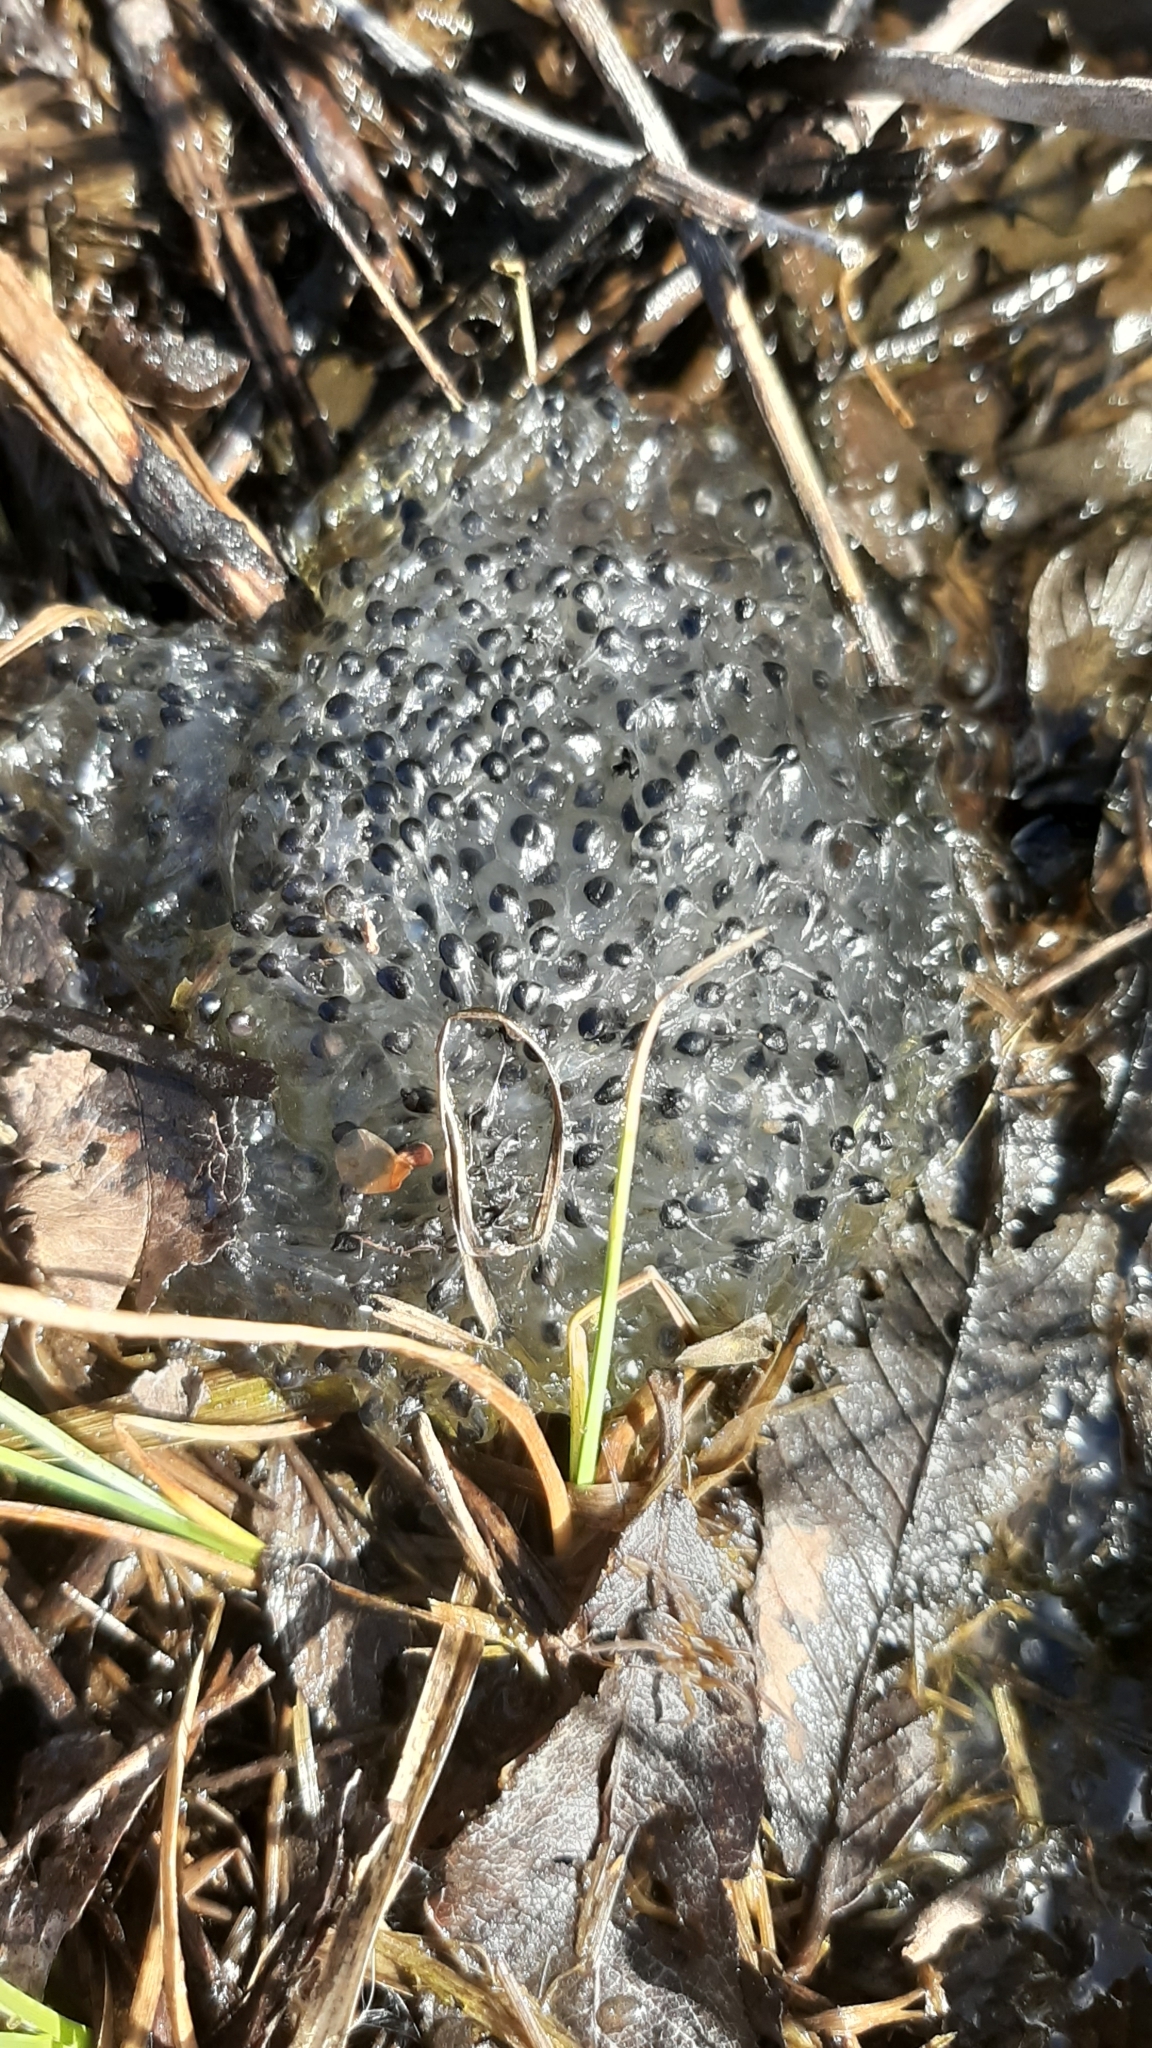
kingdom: Animalia
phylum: Chordata
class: Amphibia
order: Anura
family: Ranidae
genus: Rana
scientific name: Rana temporaria
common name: Common frog
